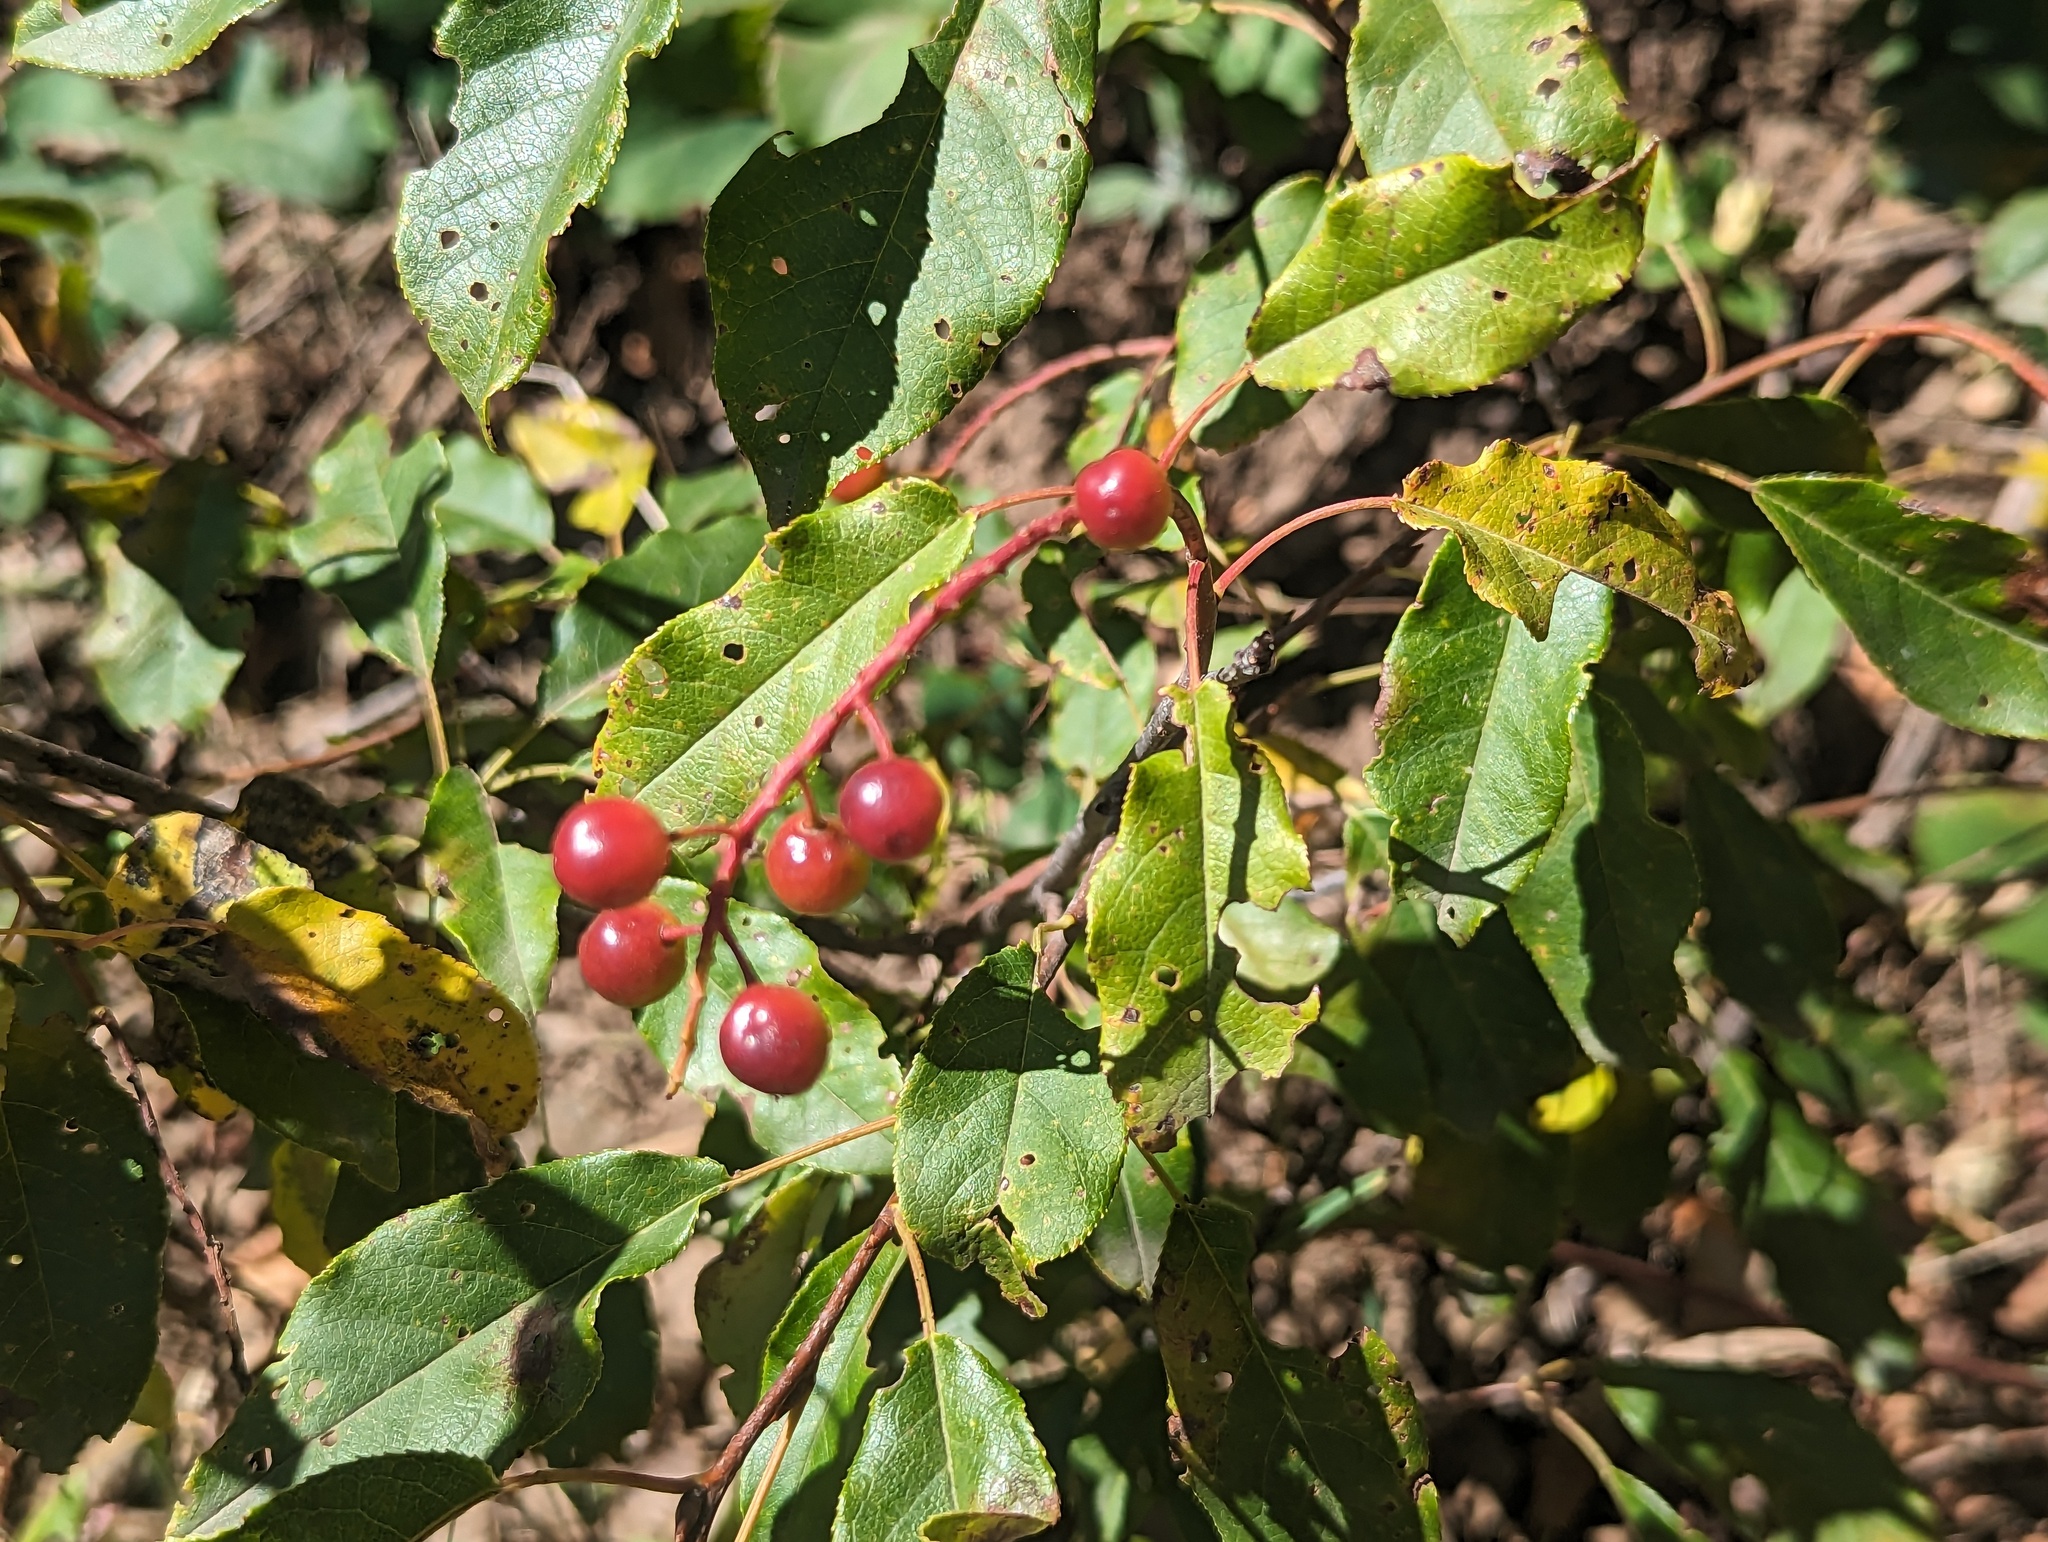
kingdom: Plantae
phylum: Tracheophyta
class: Magnoliopsida
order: Rosales
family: Rosaceae
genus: Prunus
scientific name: Prunus virginiana
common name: Chokecherry
